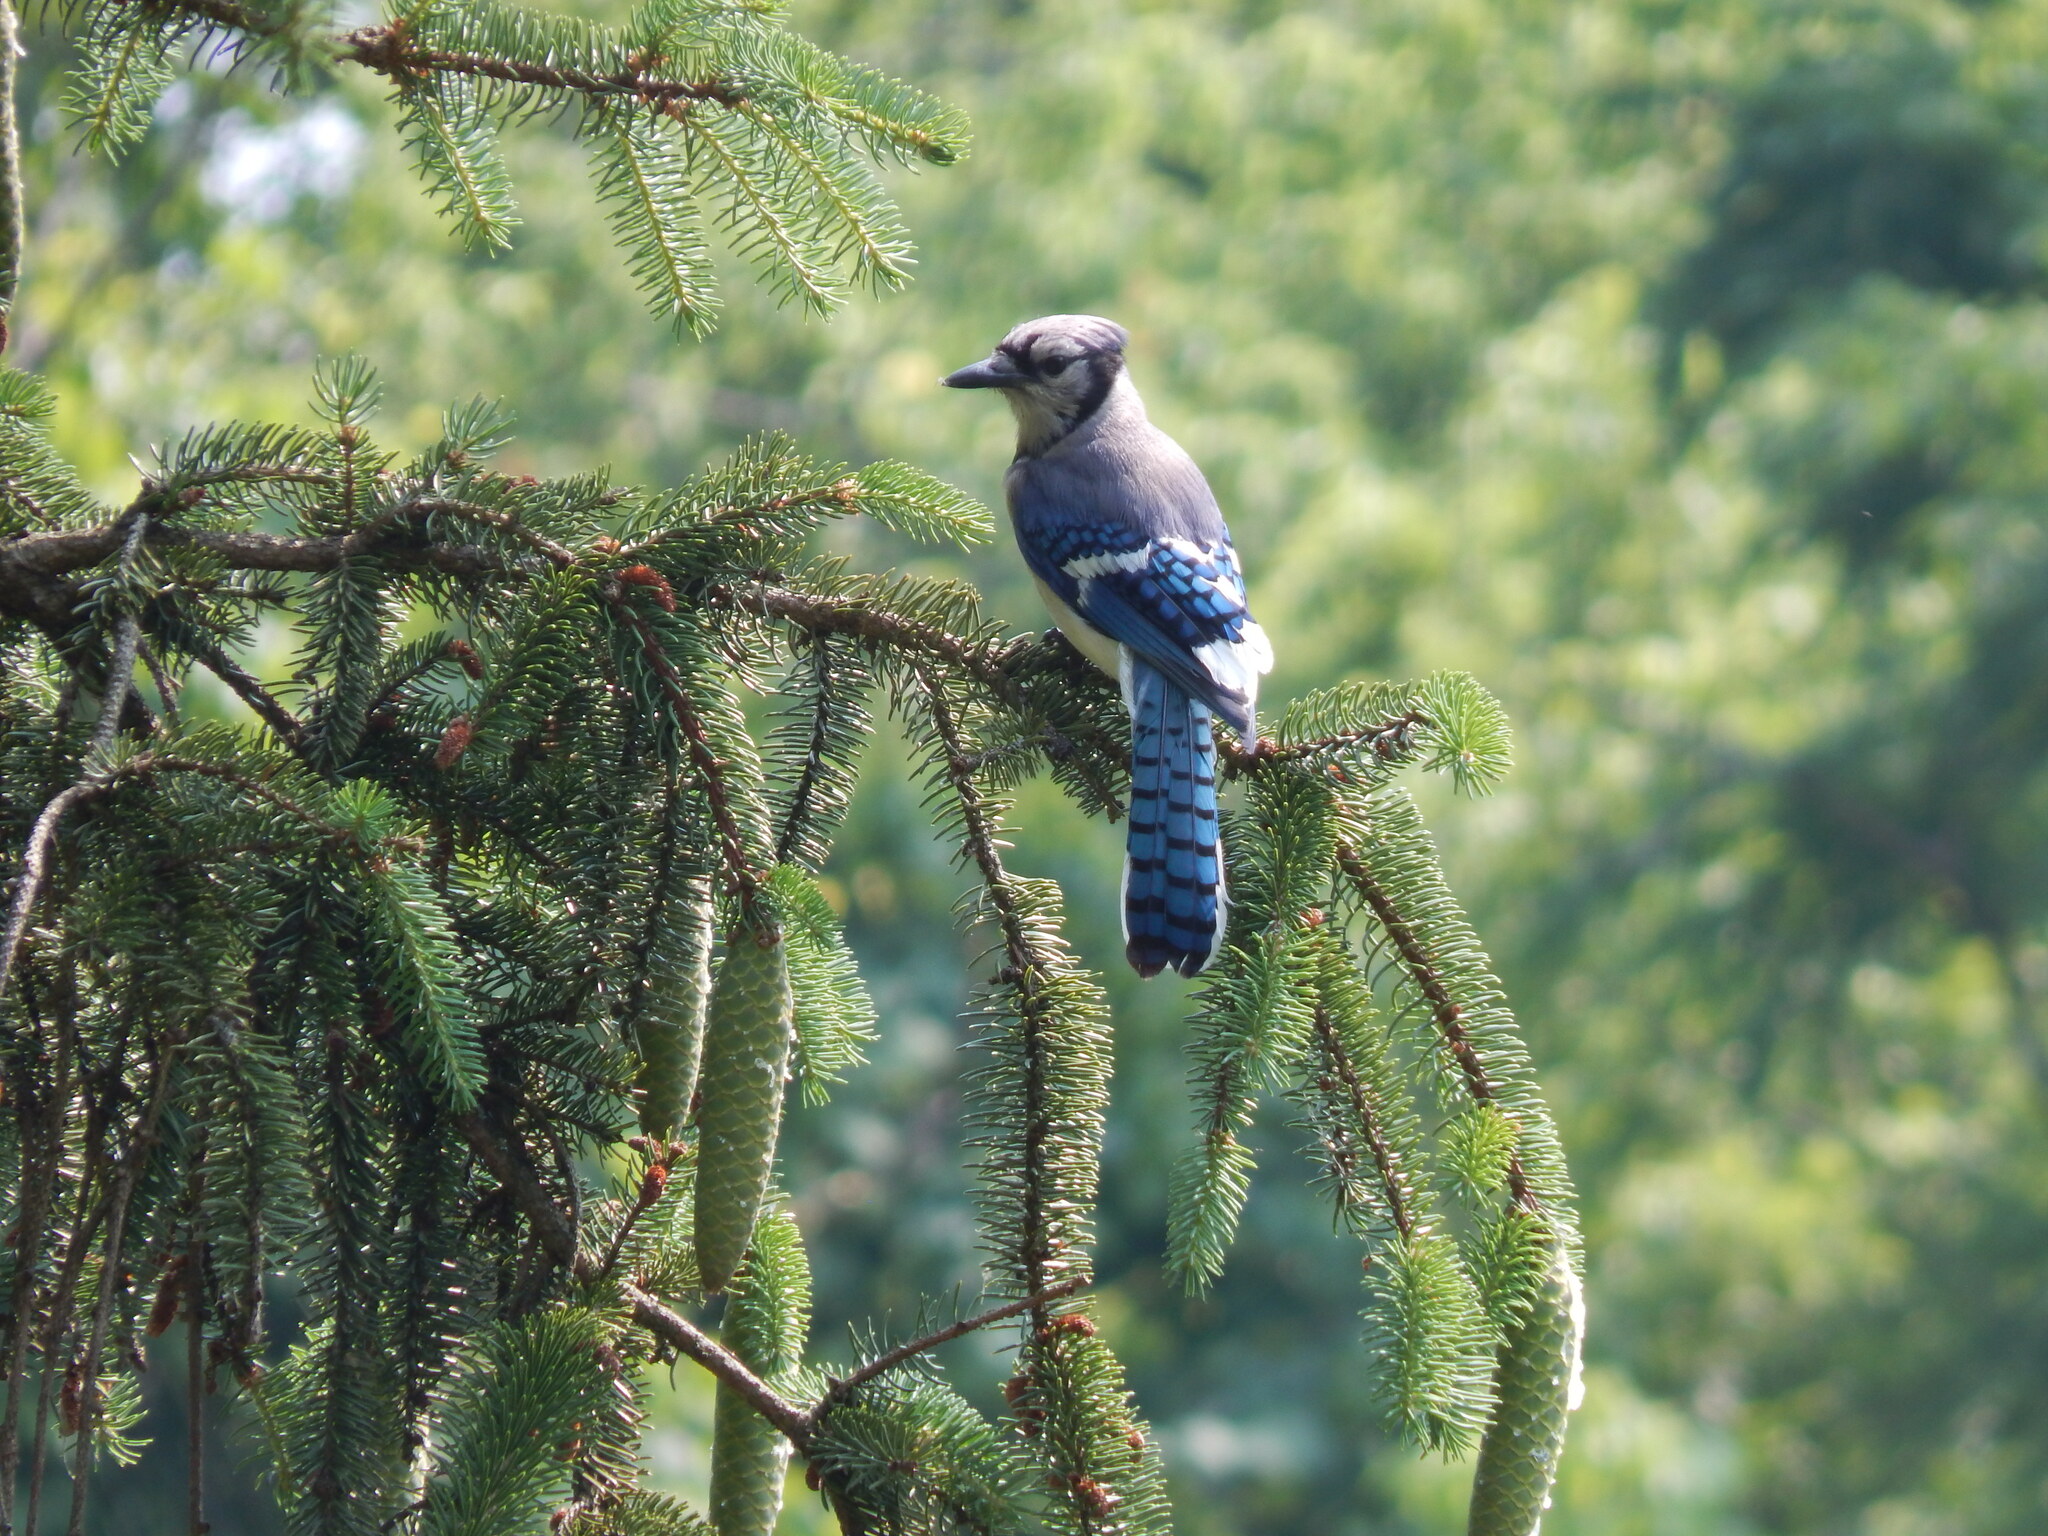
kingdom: Animalia
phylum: Chordata
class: Aves
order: Passeriformes
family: Corvidae
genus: Cyanocitta
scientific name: Cyanocitta cristata
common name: Blue jay
